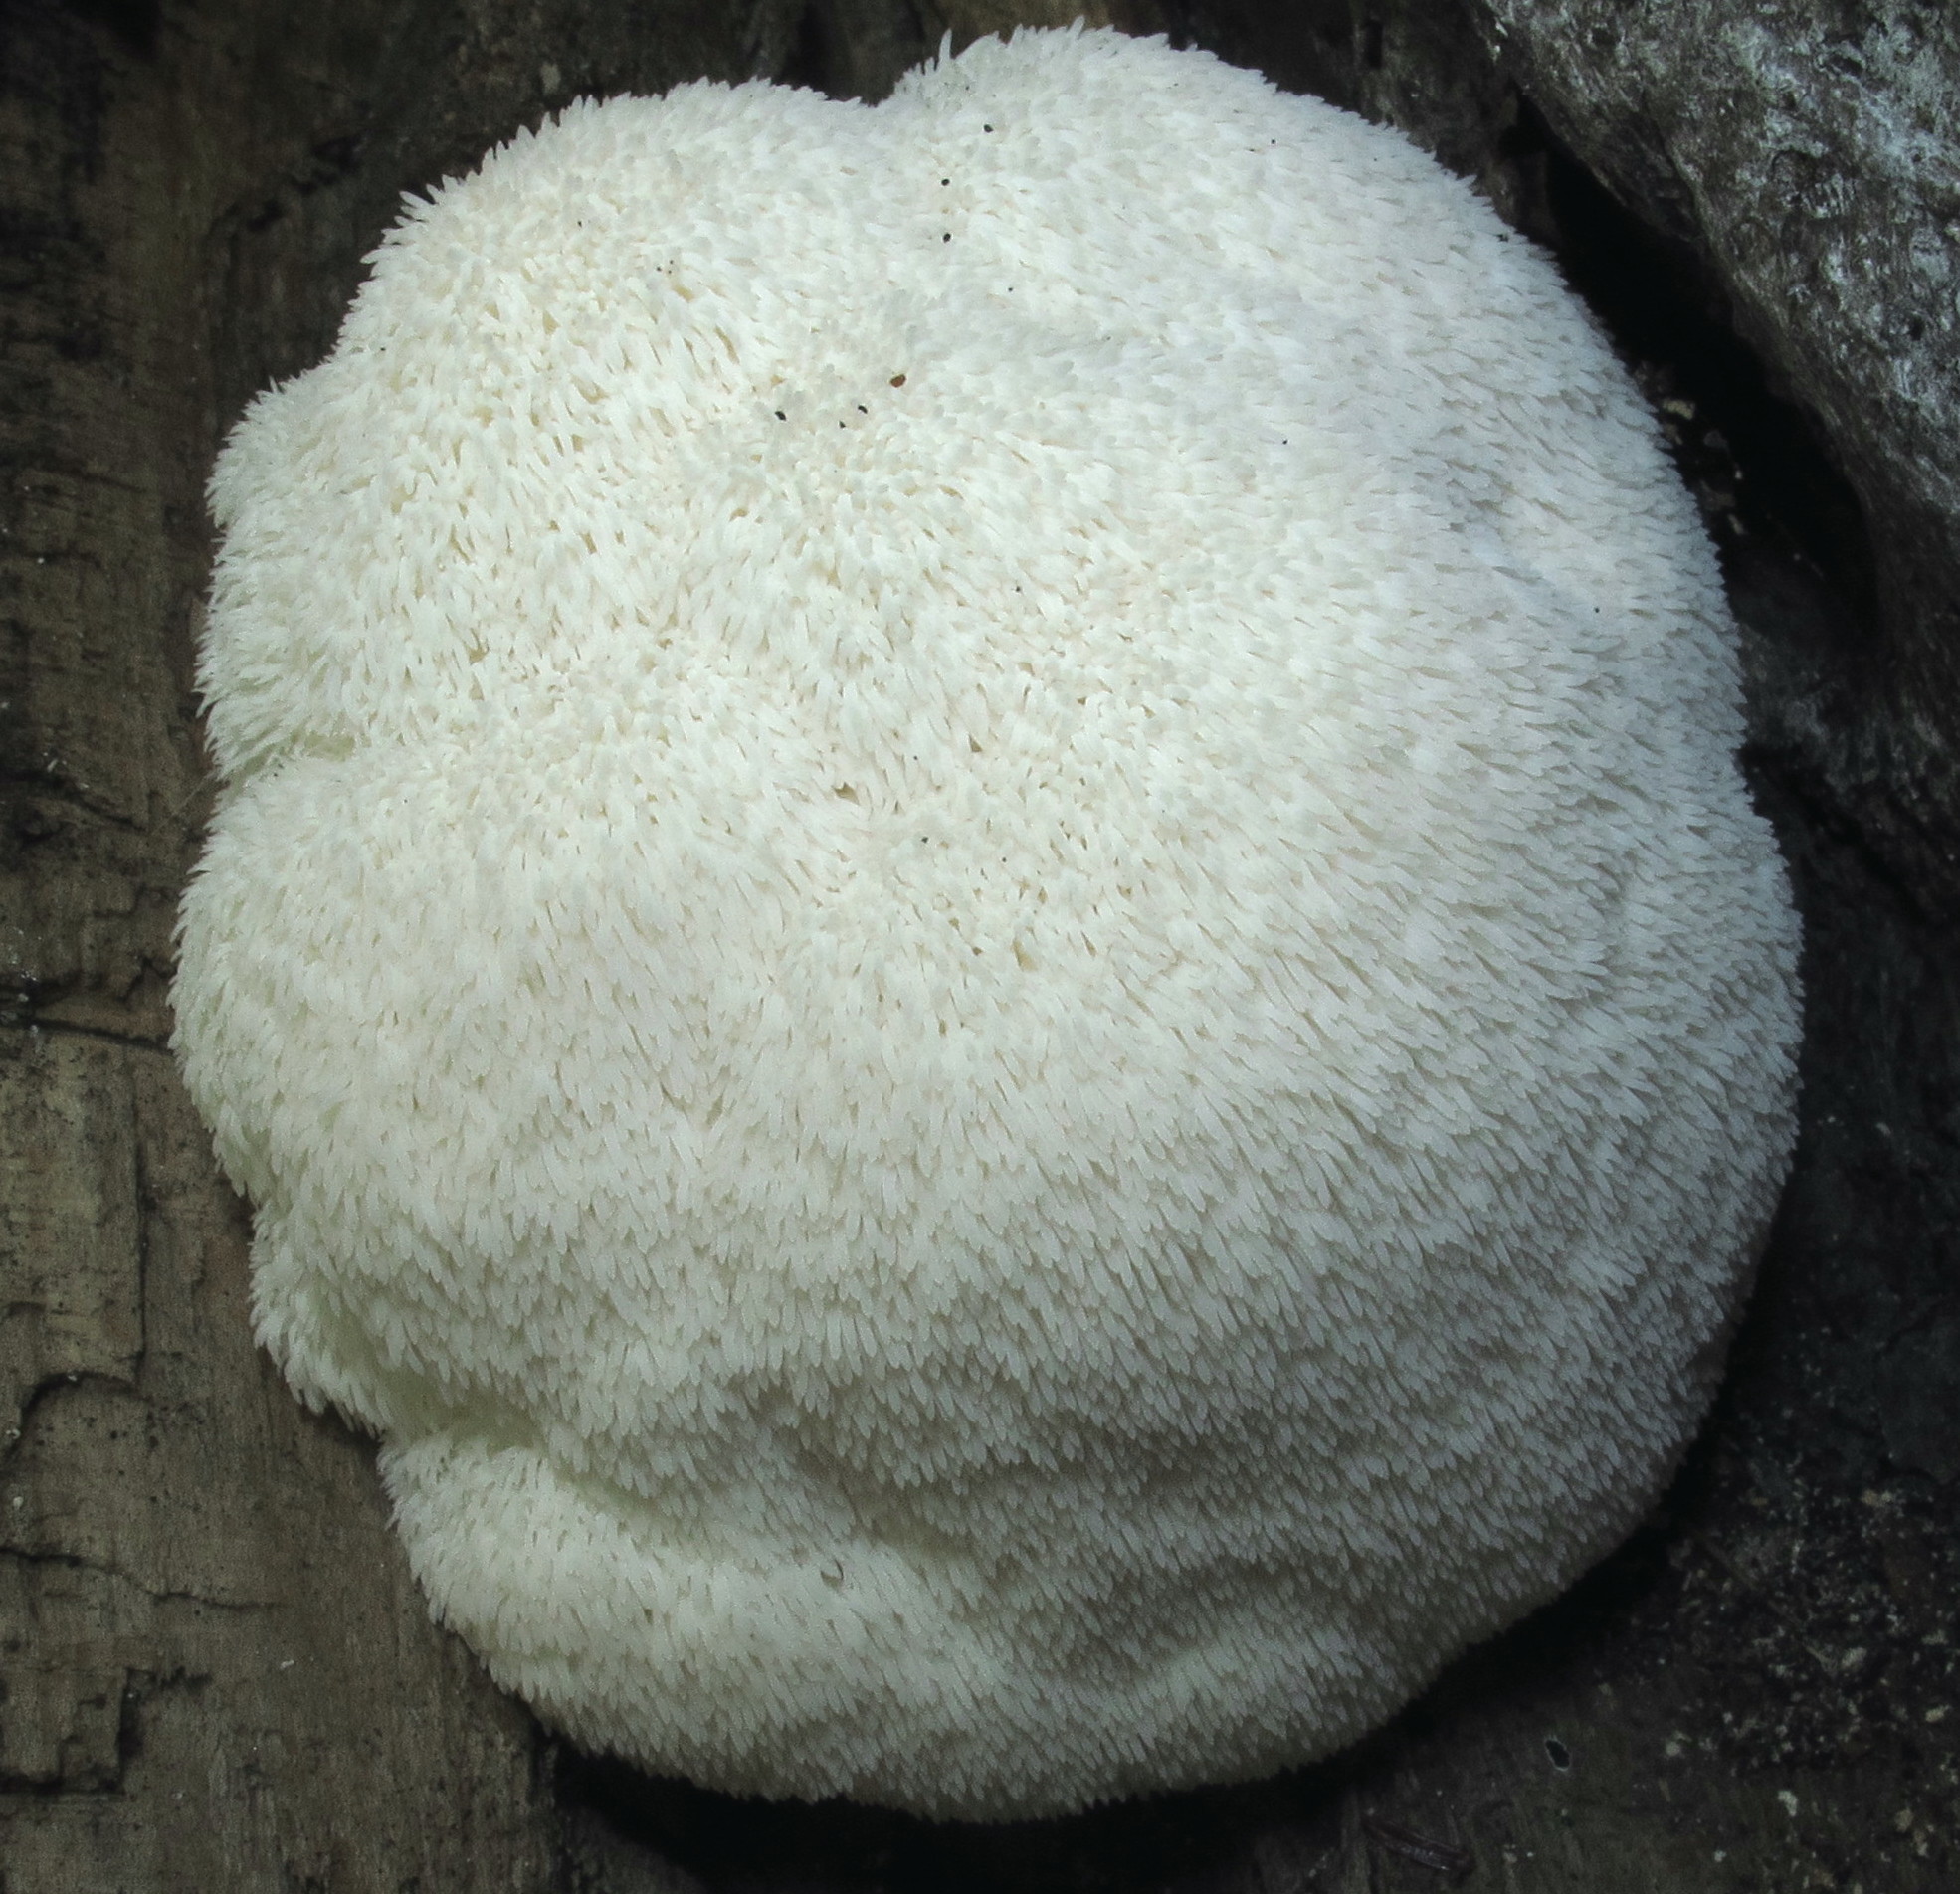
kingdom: Fungi
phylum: Basidiomycota
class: Agaricomycetes
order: Russulales
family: Hericiaceae
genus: Hericium
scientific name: Hericium erinaceus
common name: Bearded tooth
